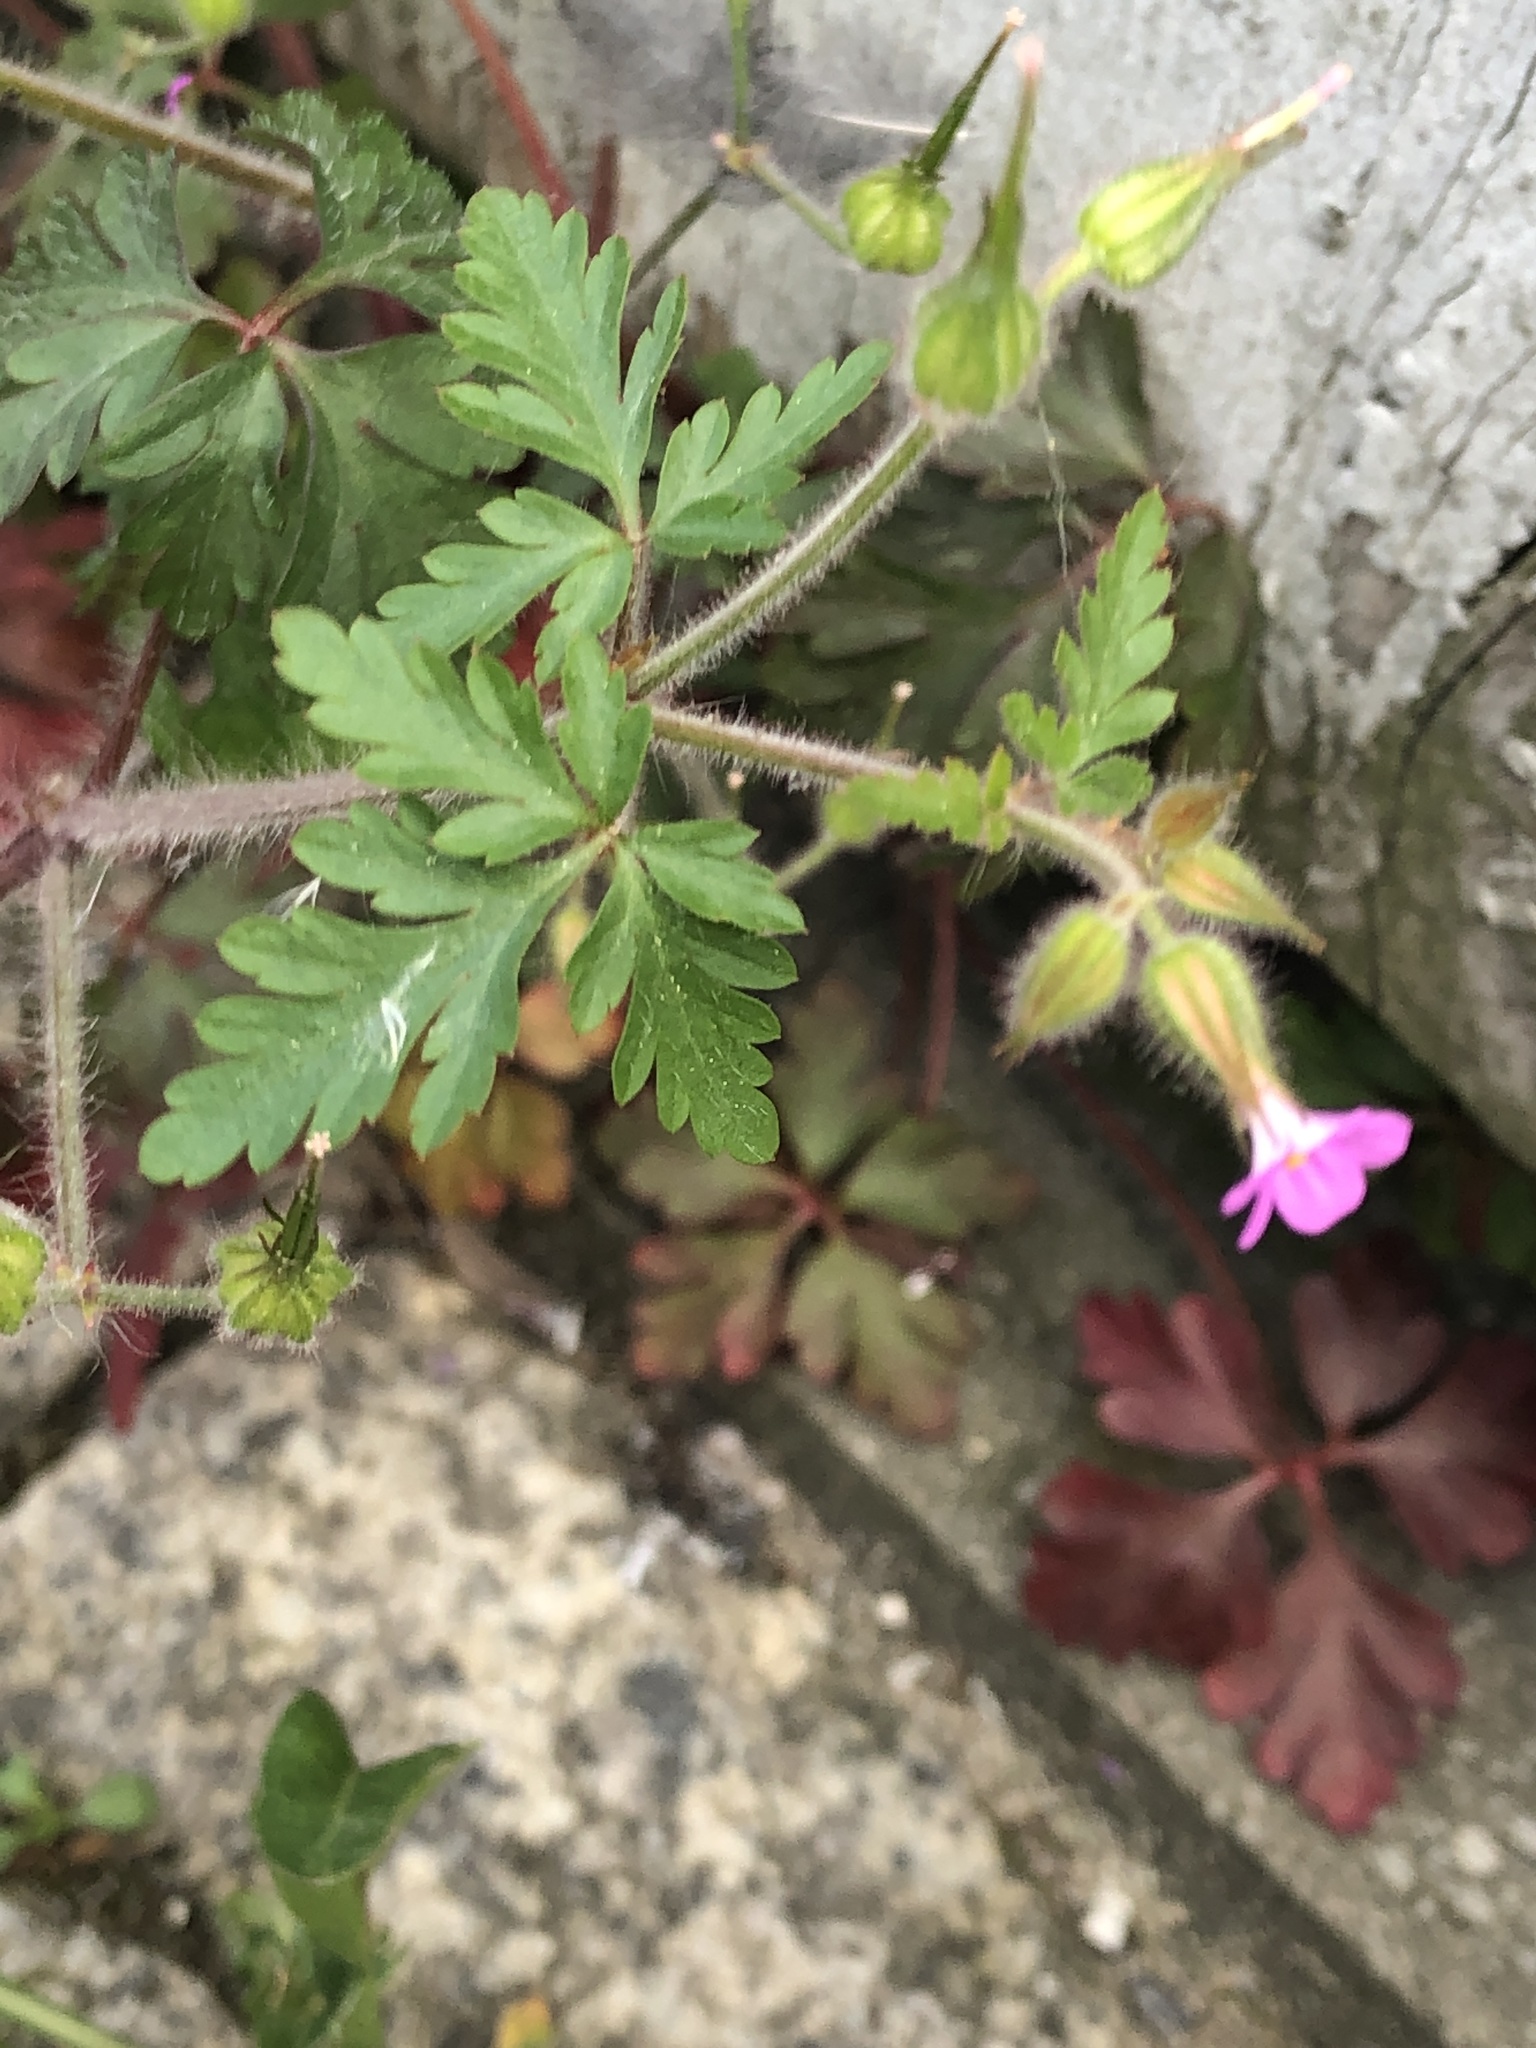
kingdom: Plantae
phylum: Tracheophyta
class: Magnoliopsida
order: Geraniales
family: Geraniaceae
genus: Geranium
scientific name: Geranium robertianum
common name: Herb-robert
